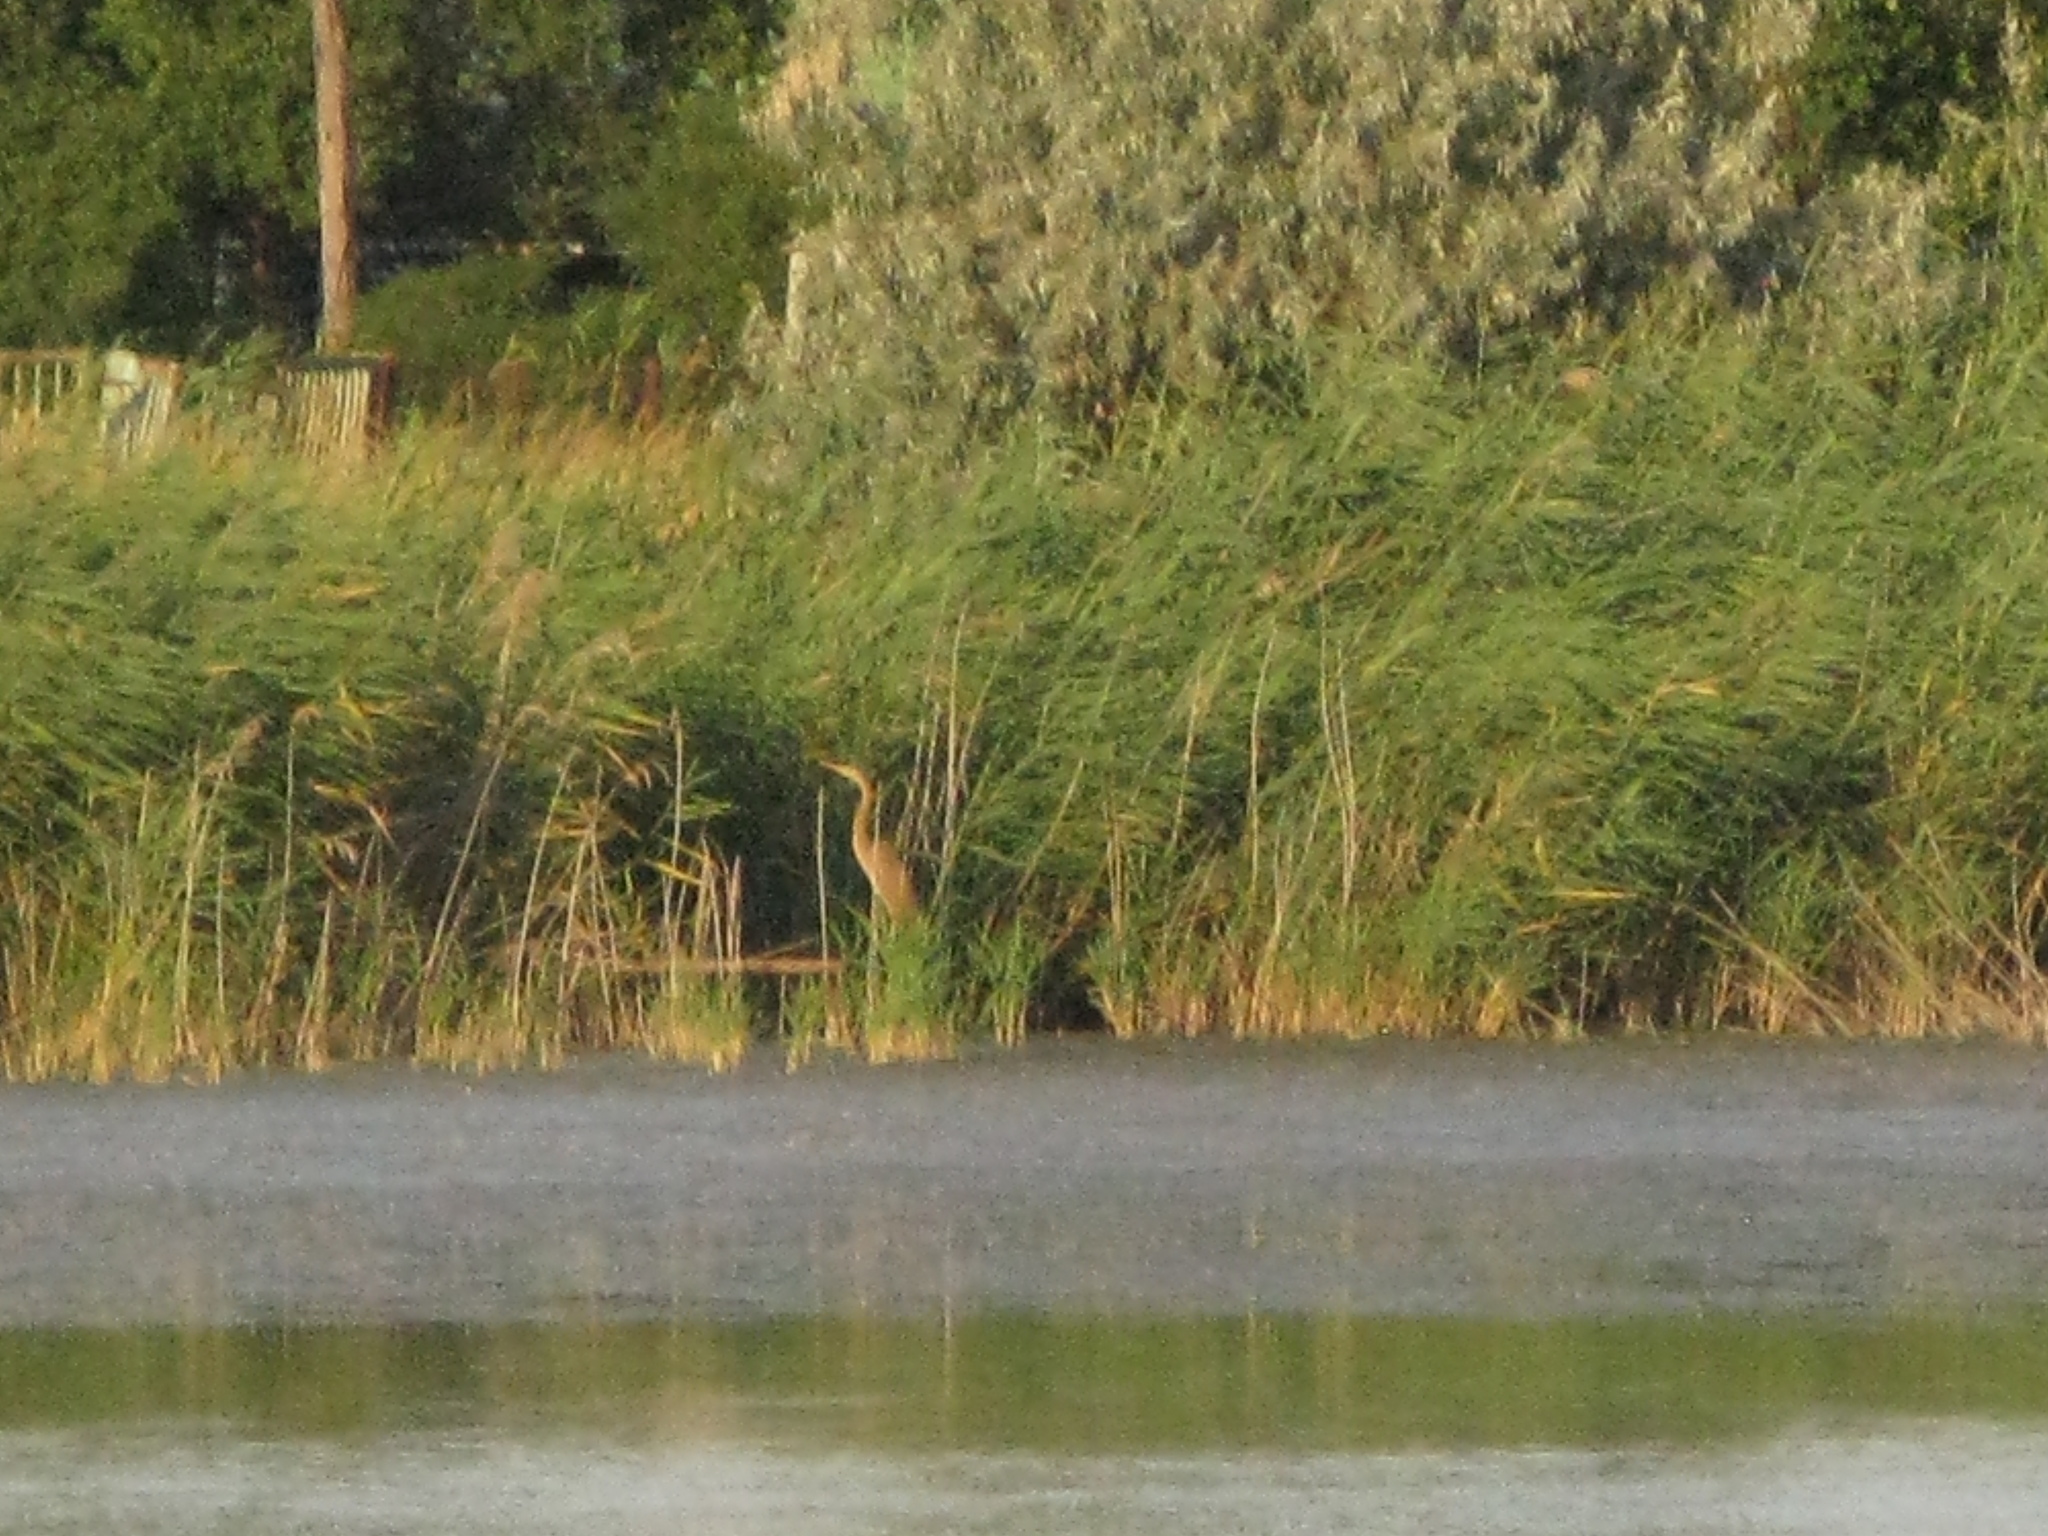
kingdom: Animalia
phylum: Chordata
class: Aves
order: Pelecaniformes
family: Ardeidae
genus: Ardea
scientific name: Ardea purpurea
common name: Purple heron
